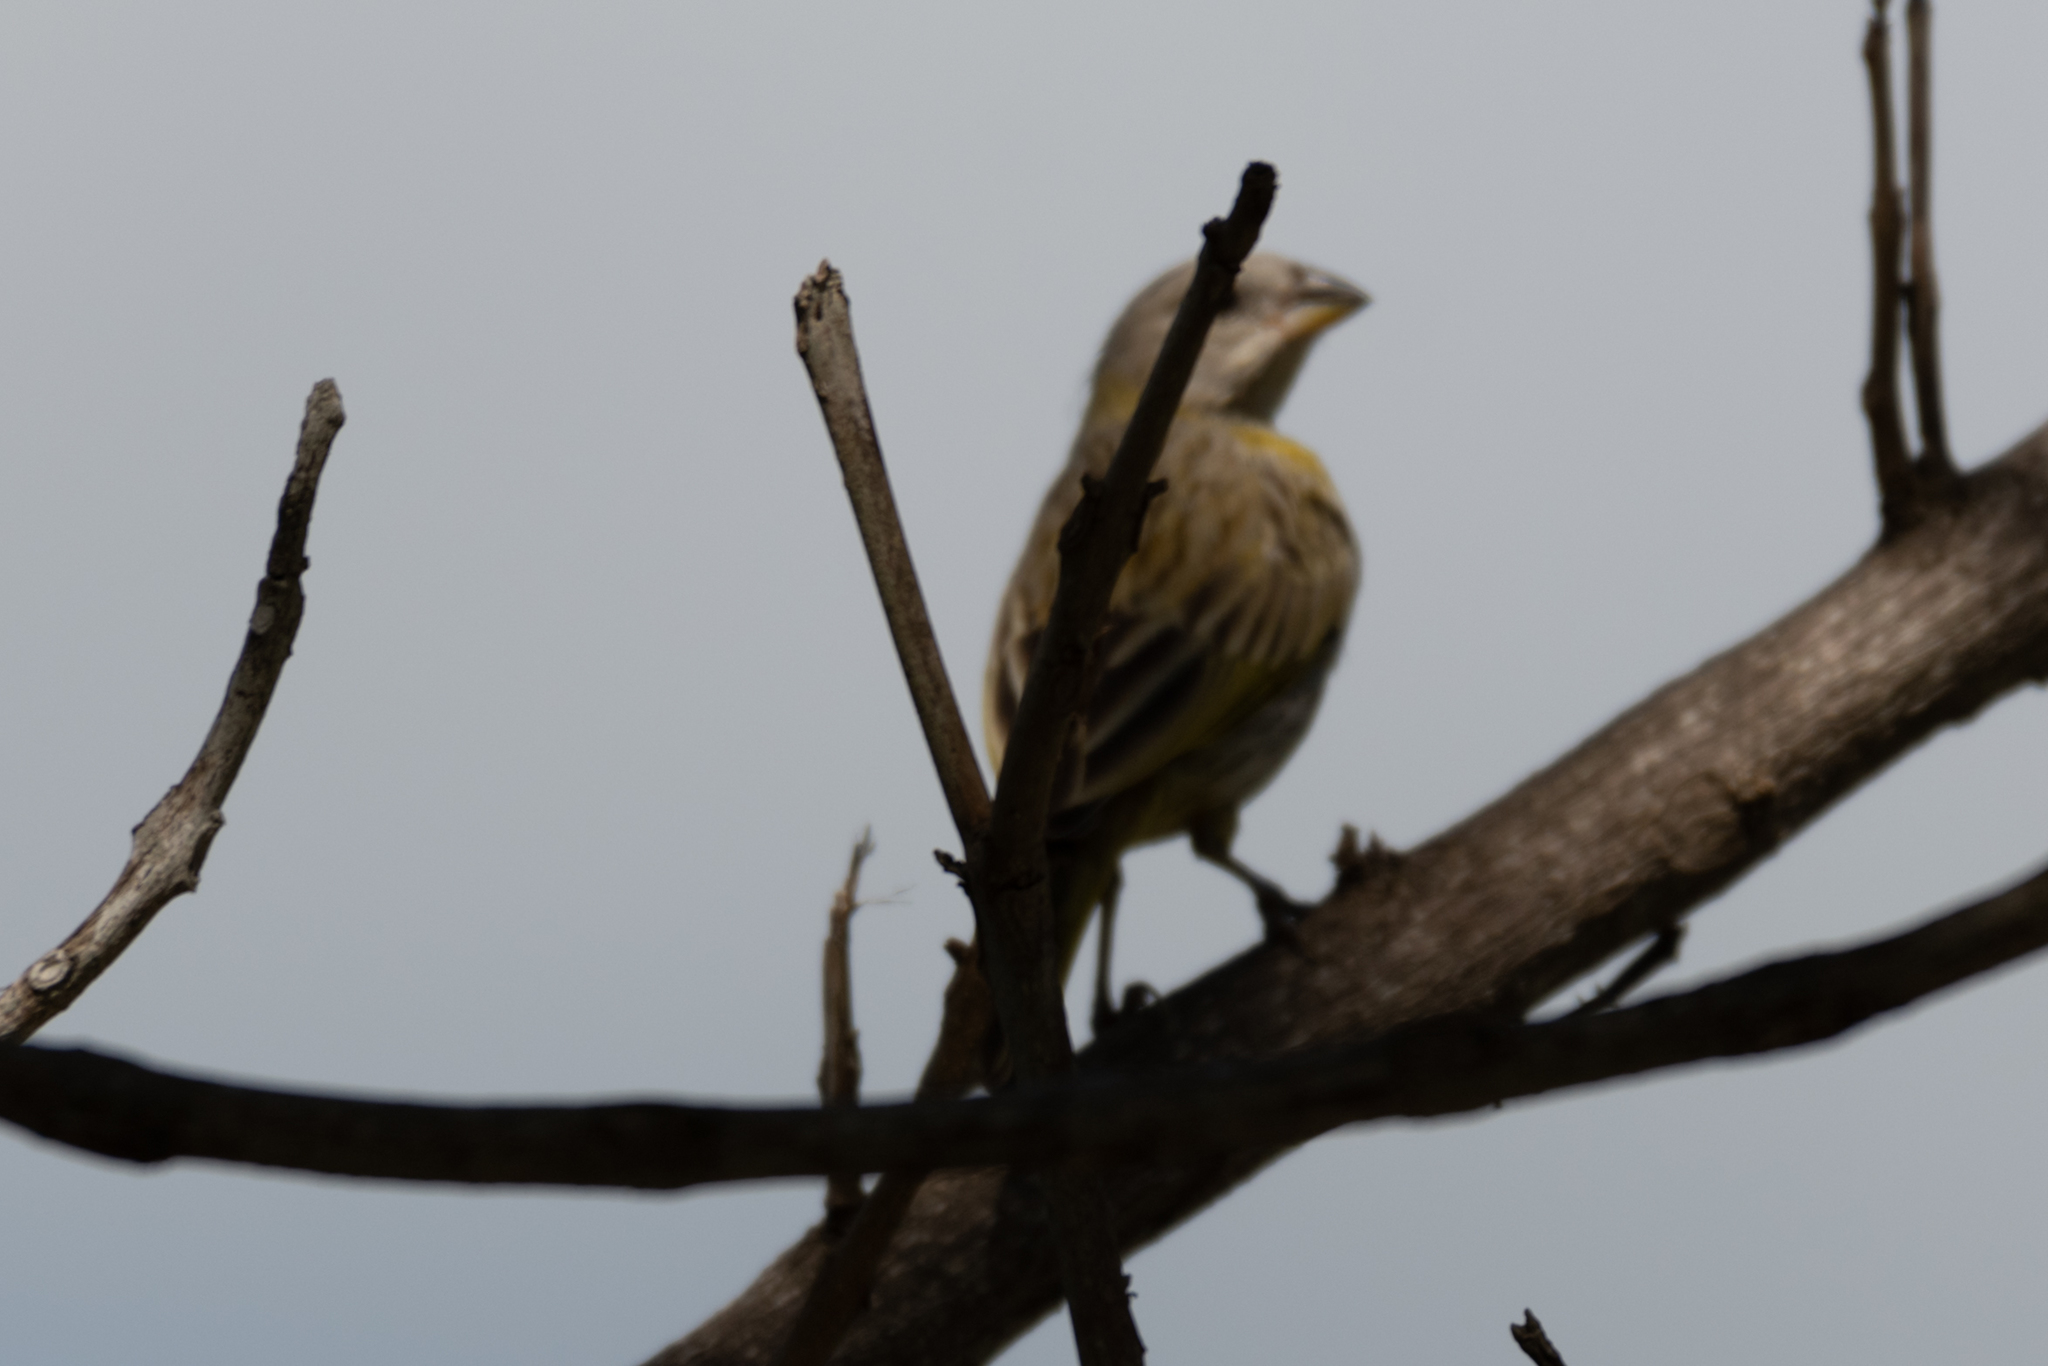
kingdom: Animalia
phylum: Chordata
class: Aves
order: Passeriformes
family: Thraupidae
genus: Sicalis
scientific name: Sicalis flaveola
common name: Saffron finch
